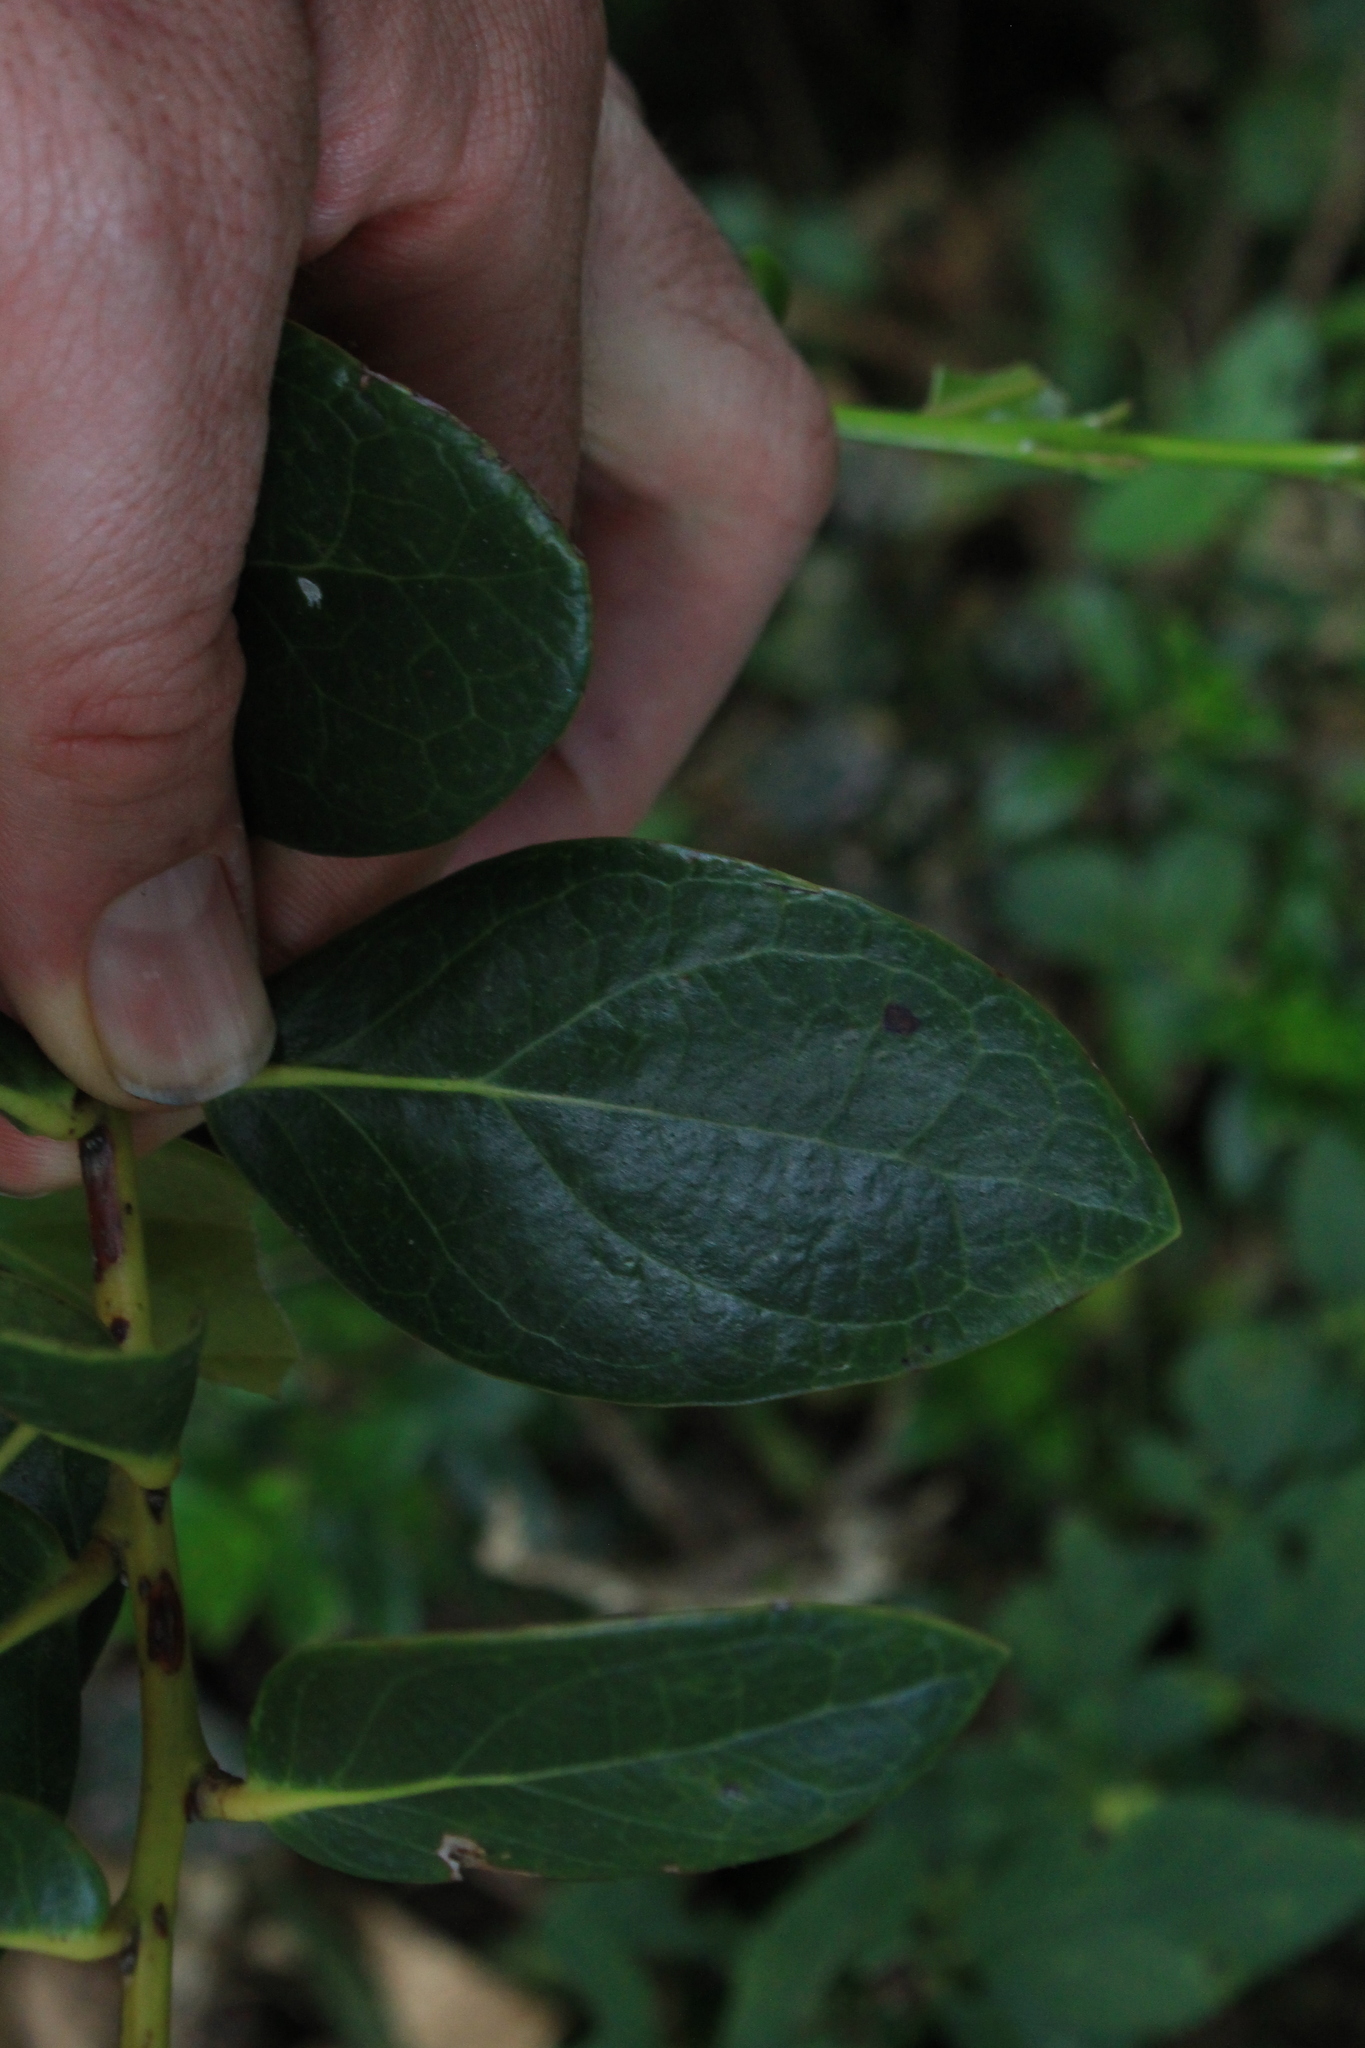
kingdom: Plantae
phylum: Tracheophyta
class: Magnoliopsida
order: Ericales
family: Ericaceae
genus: Macleania
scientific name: Macleania rupestris
